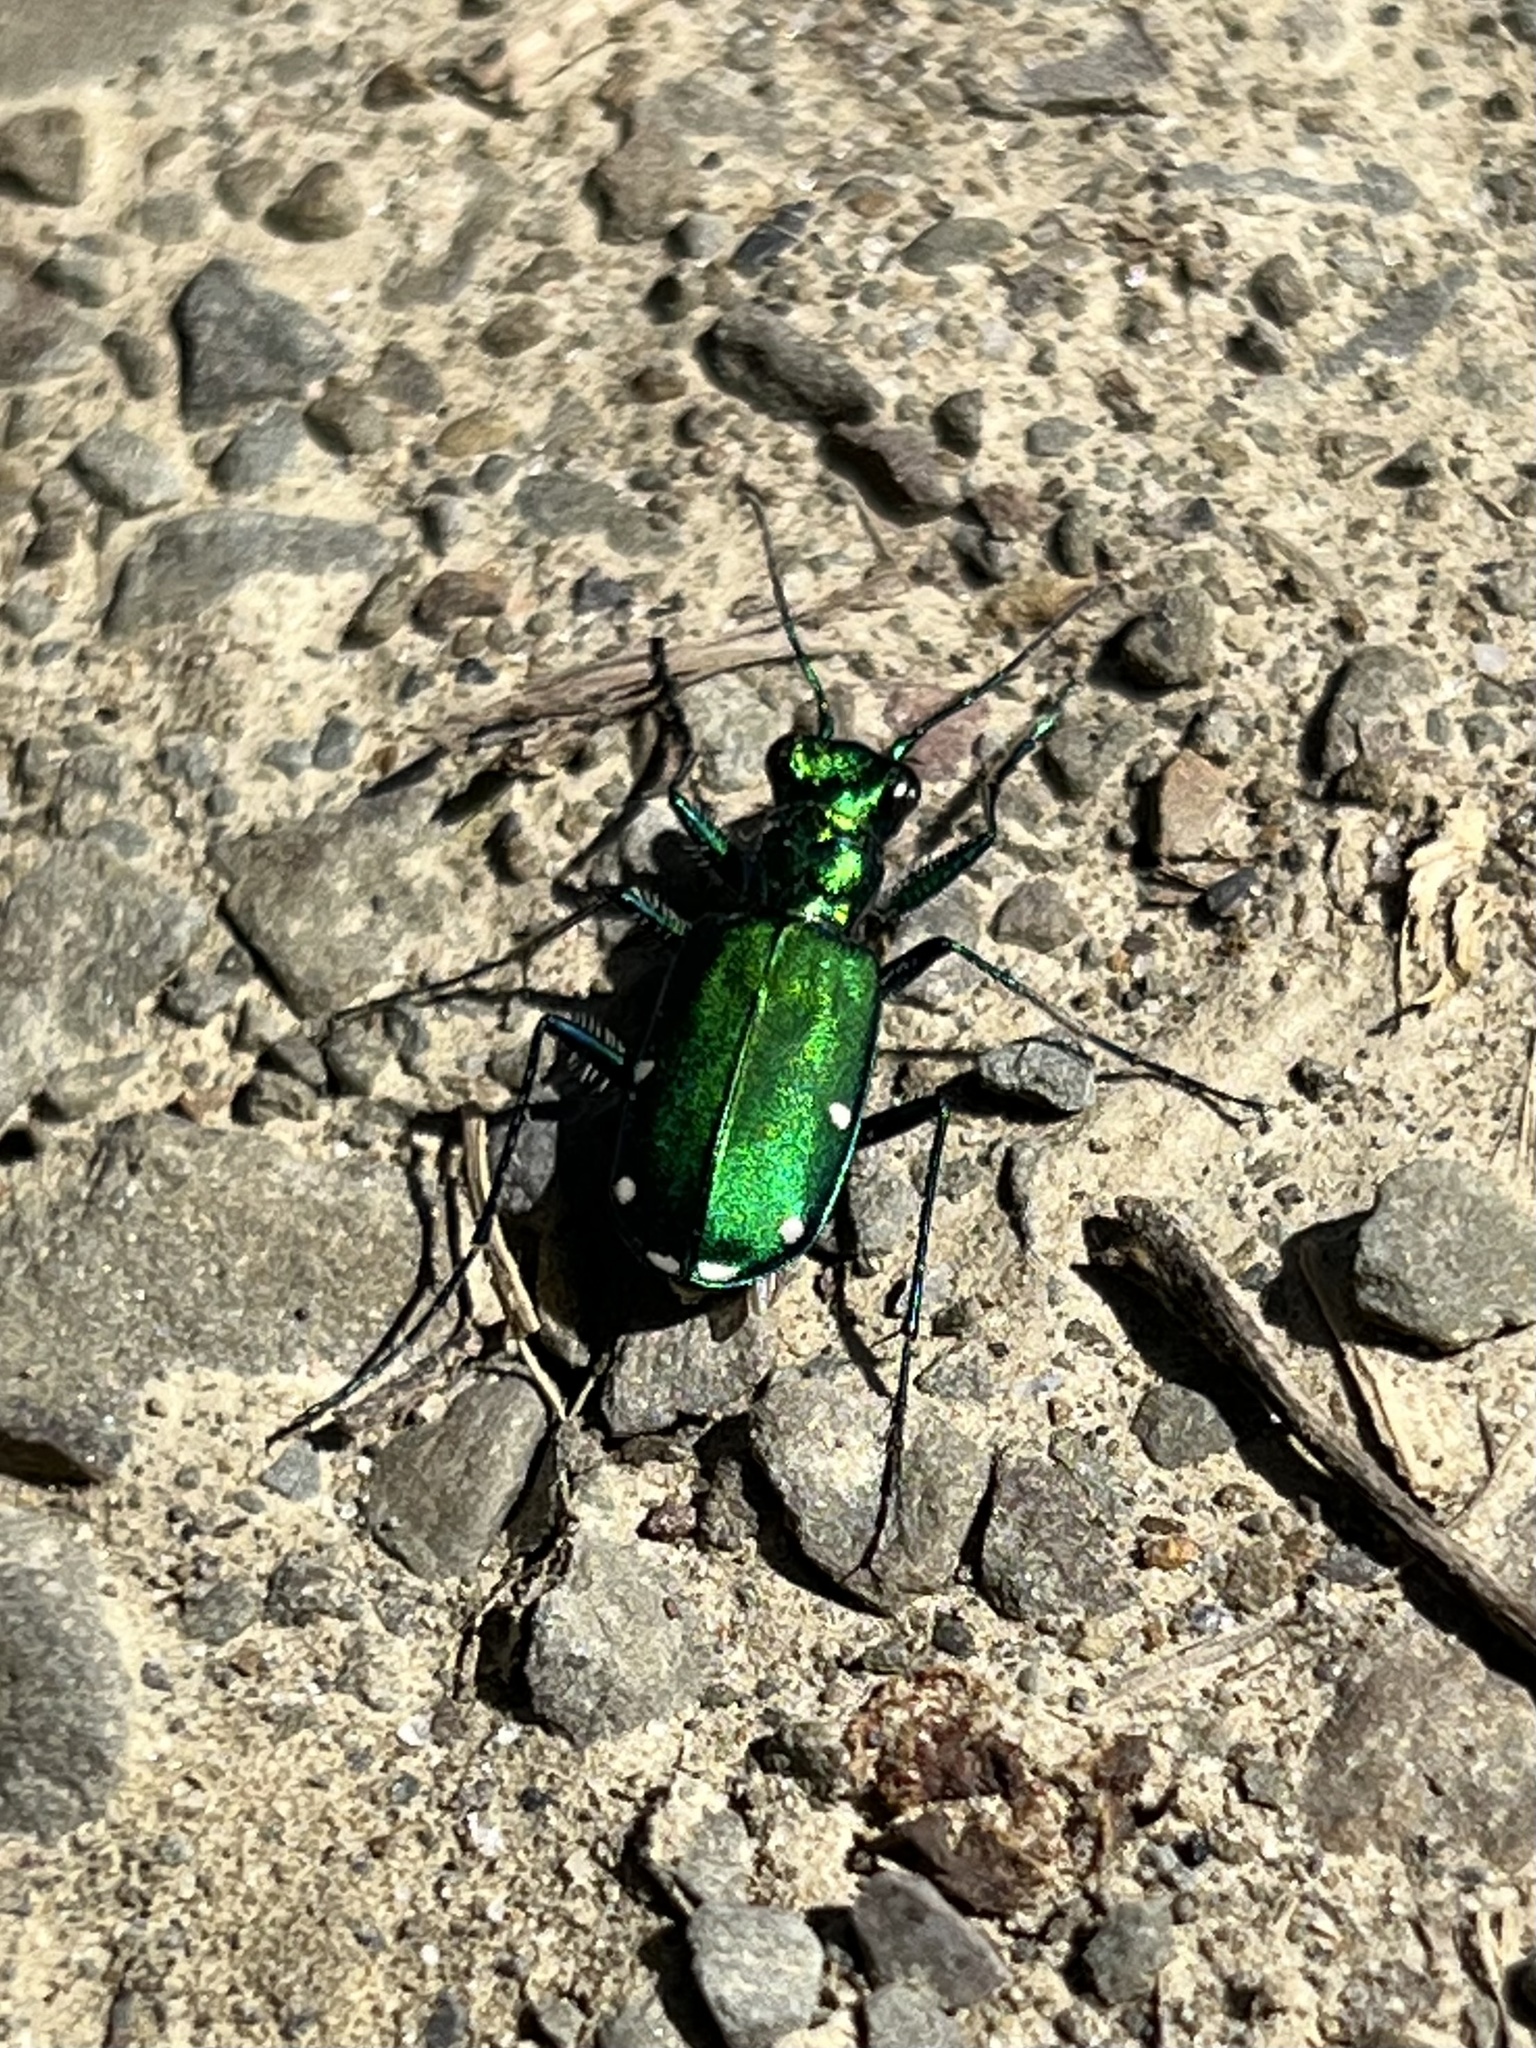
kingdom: Animalia
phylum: Arthropoda
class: Insecta
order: Coleoptera
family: Carabidae
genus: Cicindela
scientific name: Cicindela sexguttata
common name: Six-spotted tiger beetle
